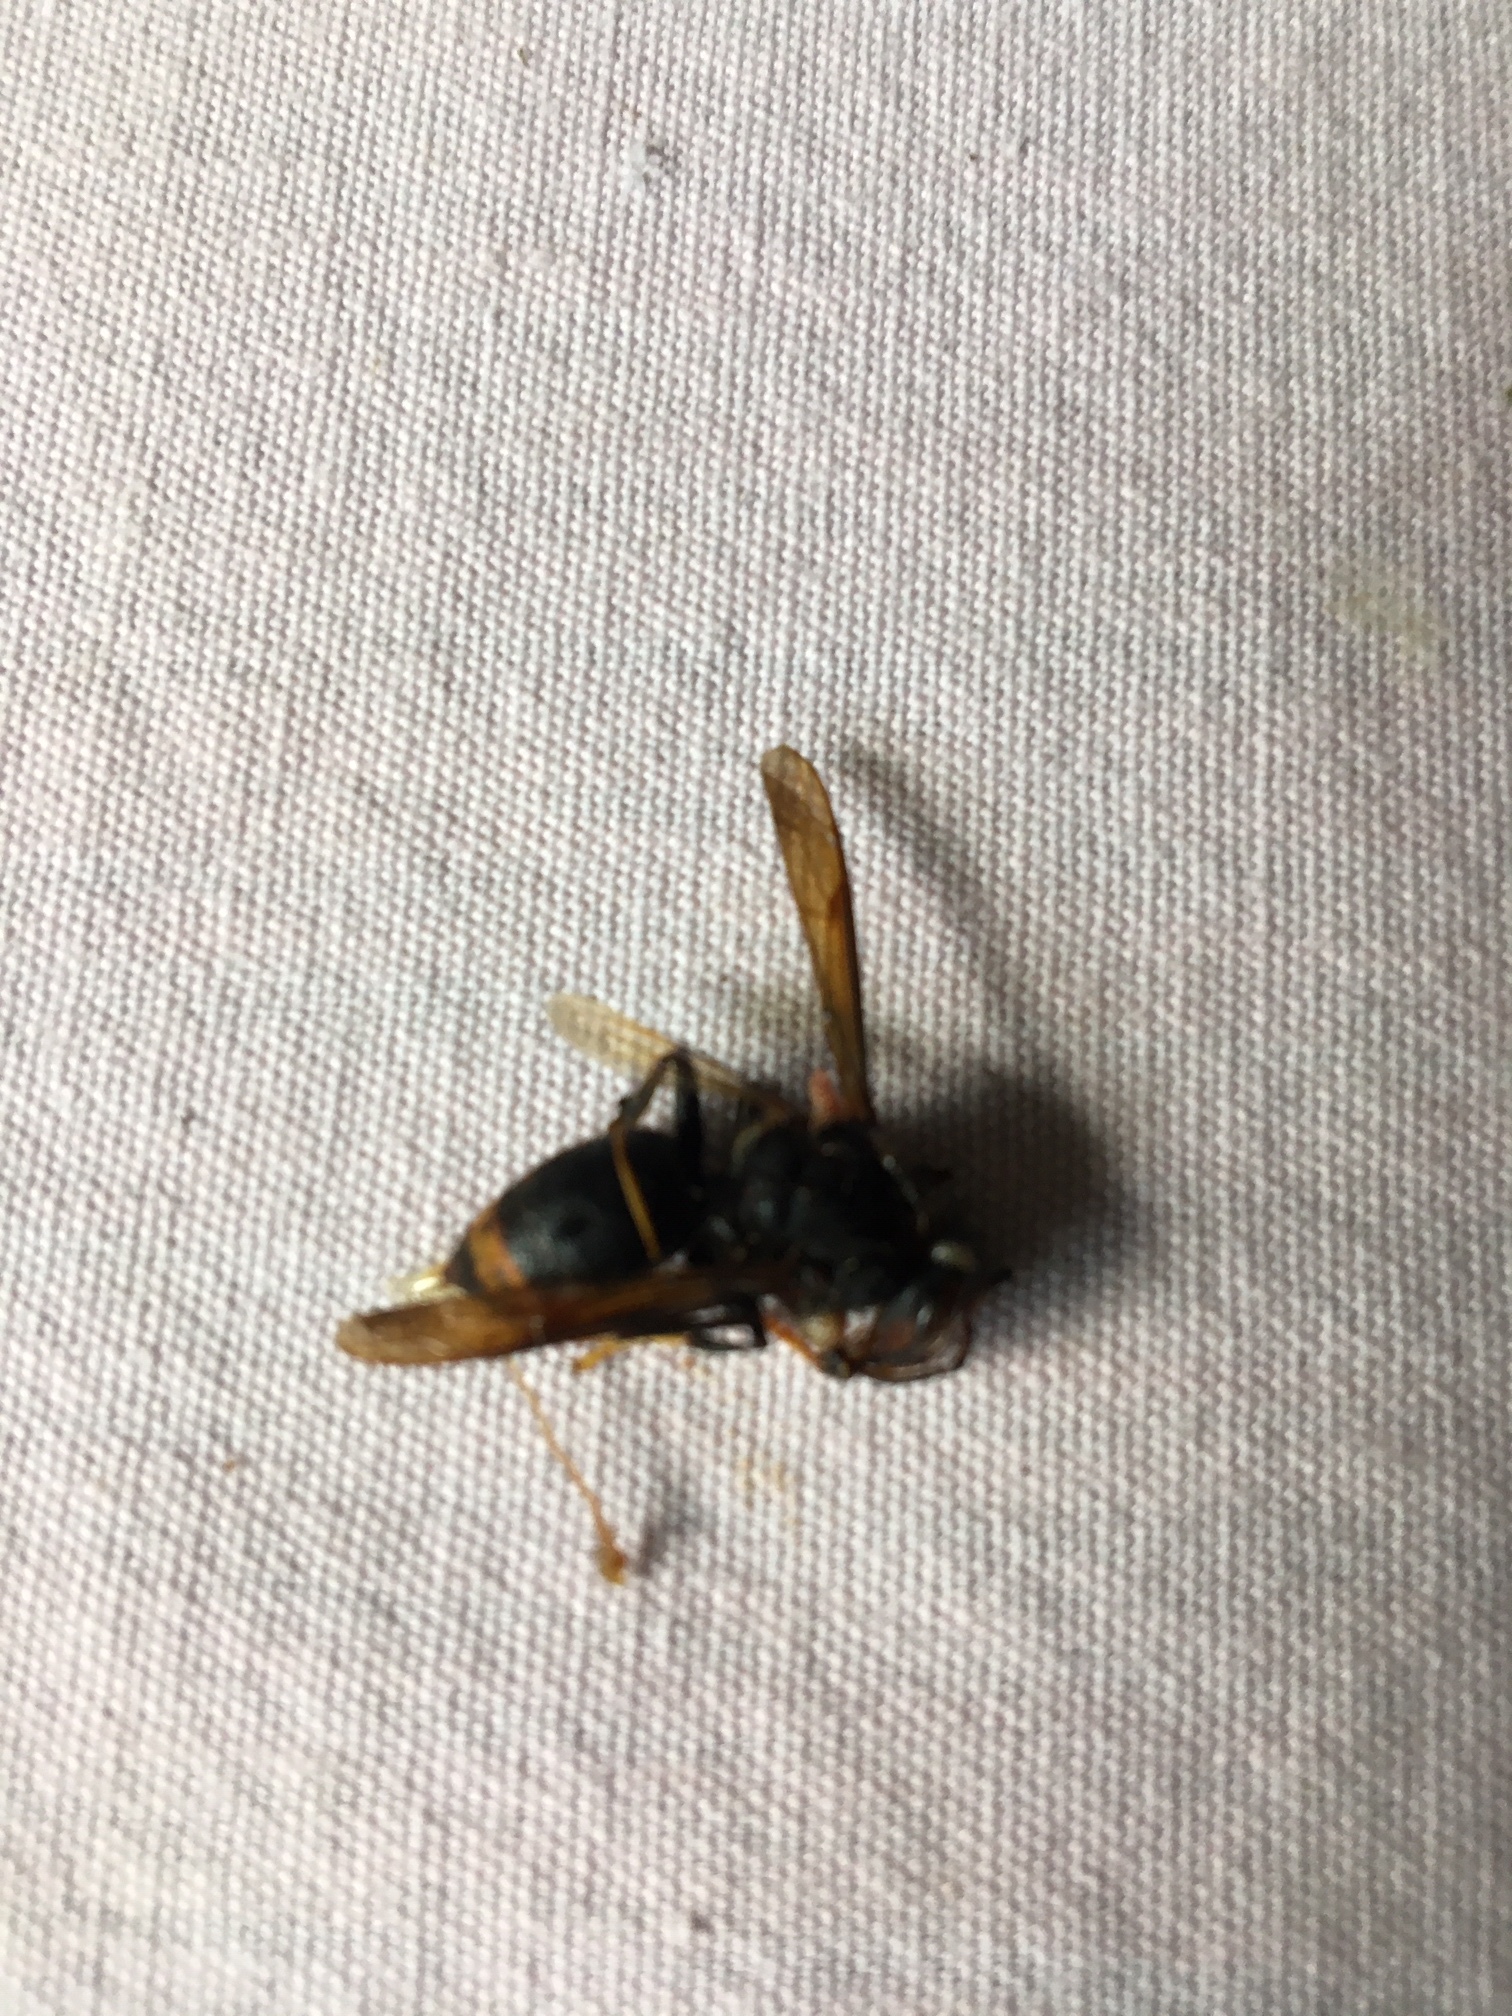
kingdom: Animalia
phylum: Arthropoda
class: Insecta
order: Hymenoptera
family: Vespidae
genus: Vespa
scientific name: Vespa velutina
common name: Asian hornet
